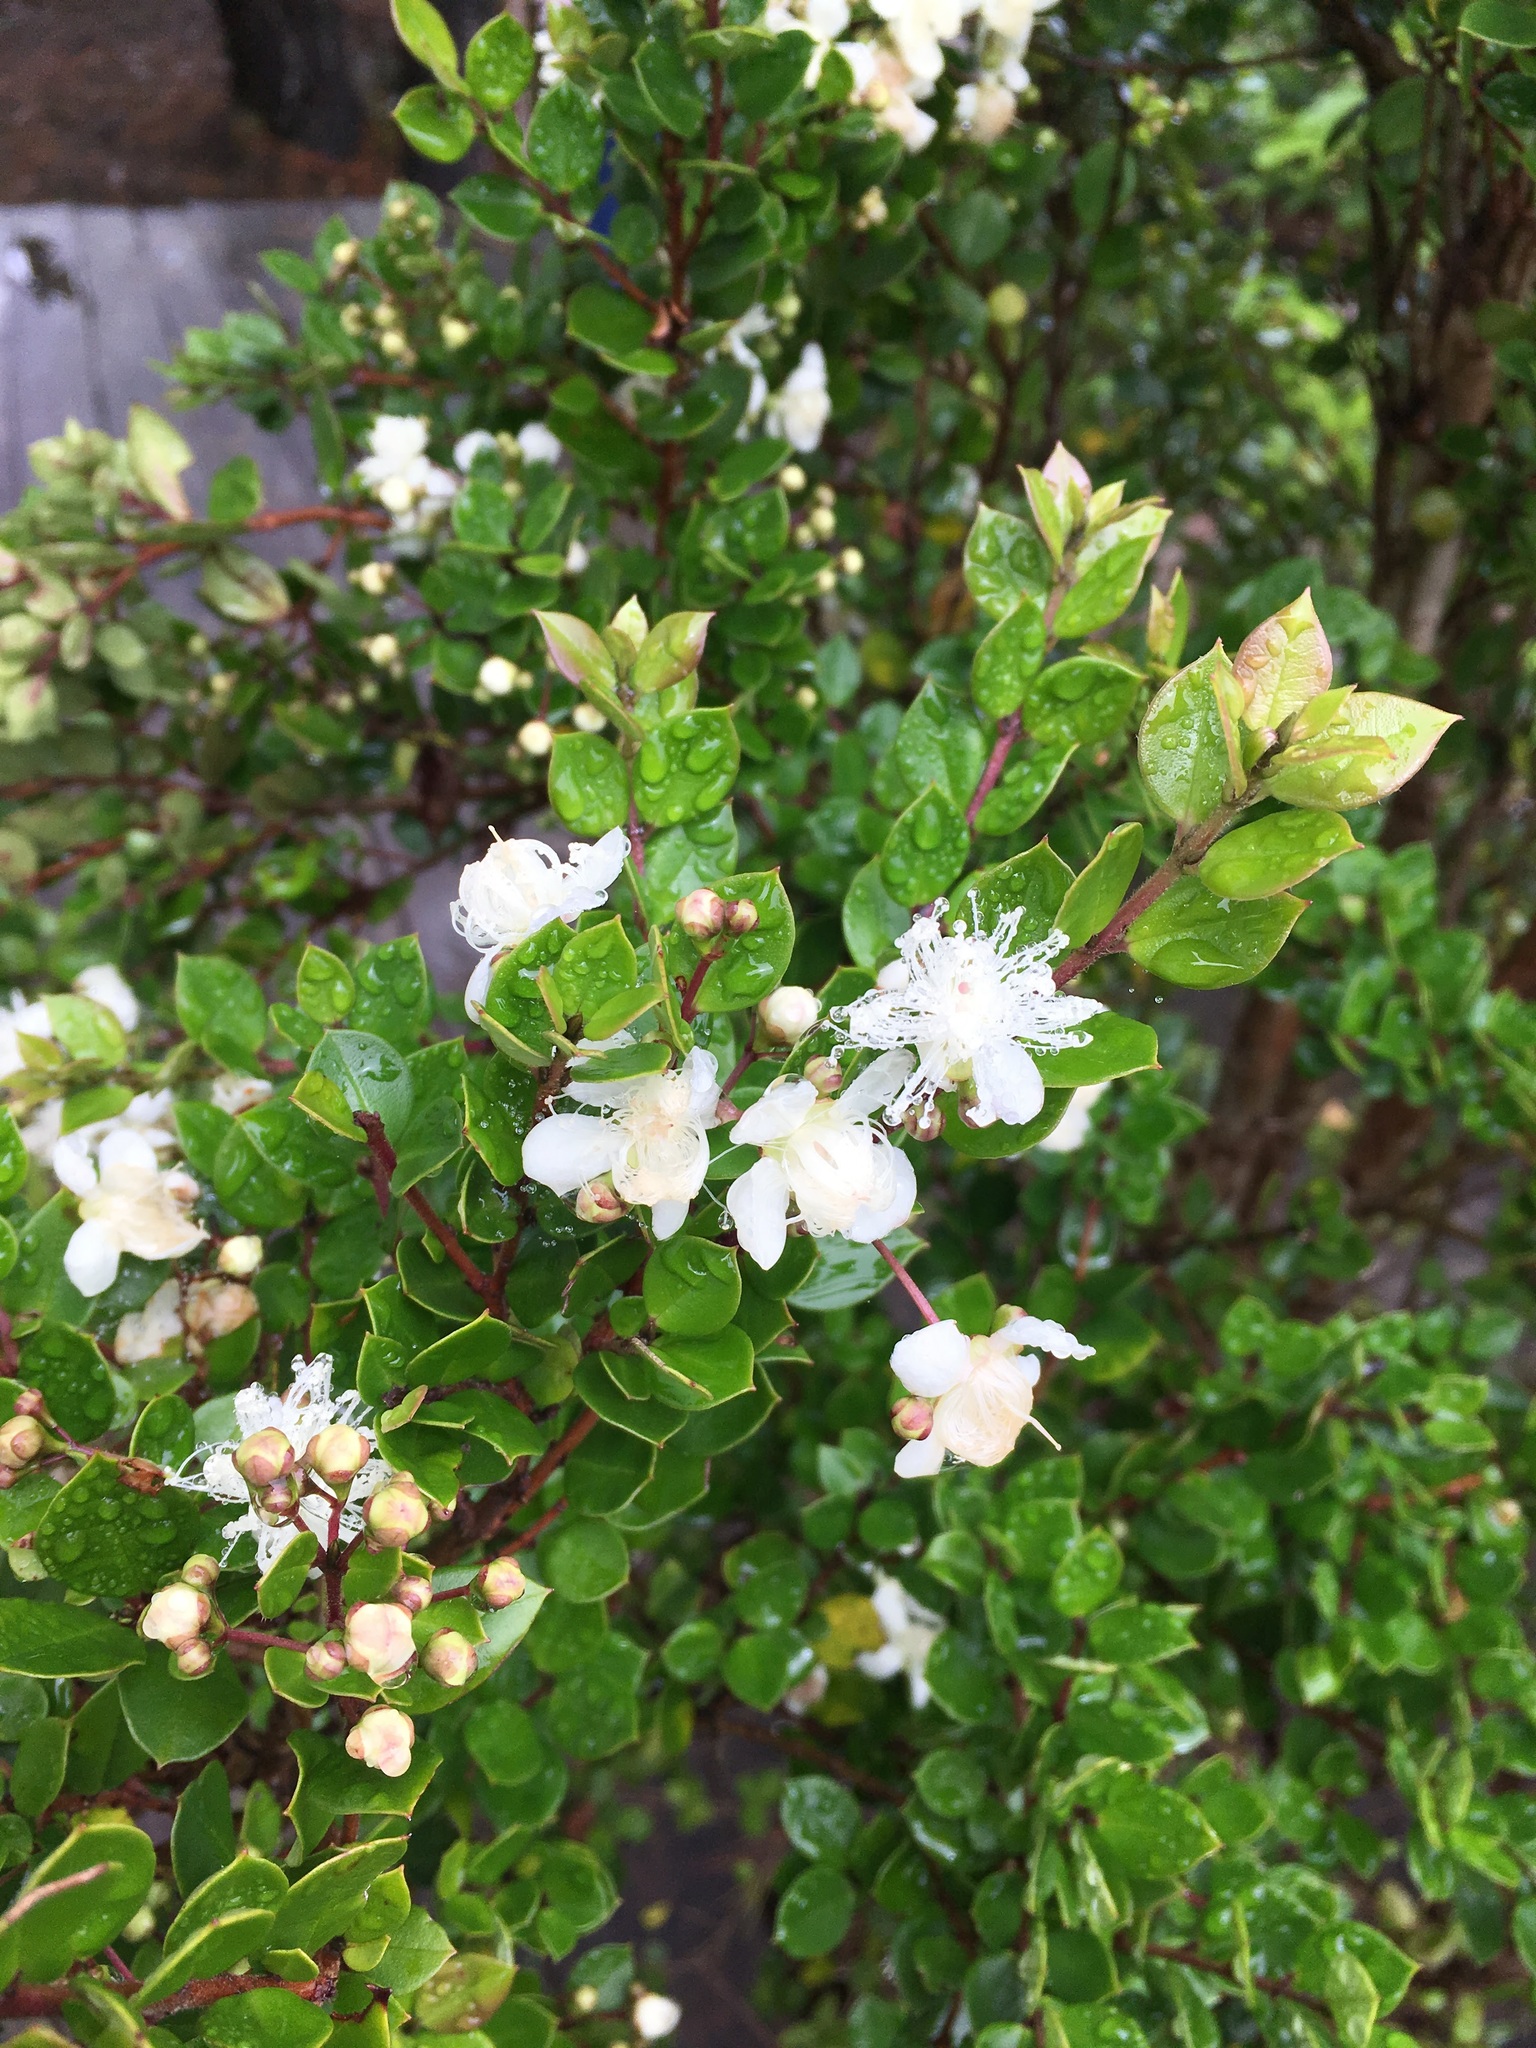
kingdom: Plantae
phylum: Tracheophyta
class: Magnoliopsida
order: Myrtales
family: Myrtaceae
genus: Luma
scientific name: Luma apiculata
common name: Chilean myrtle
